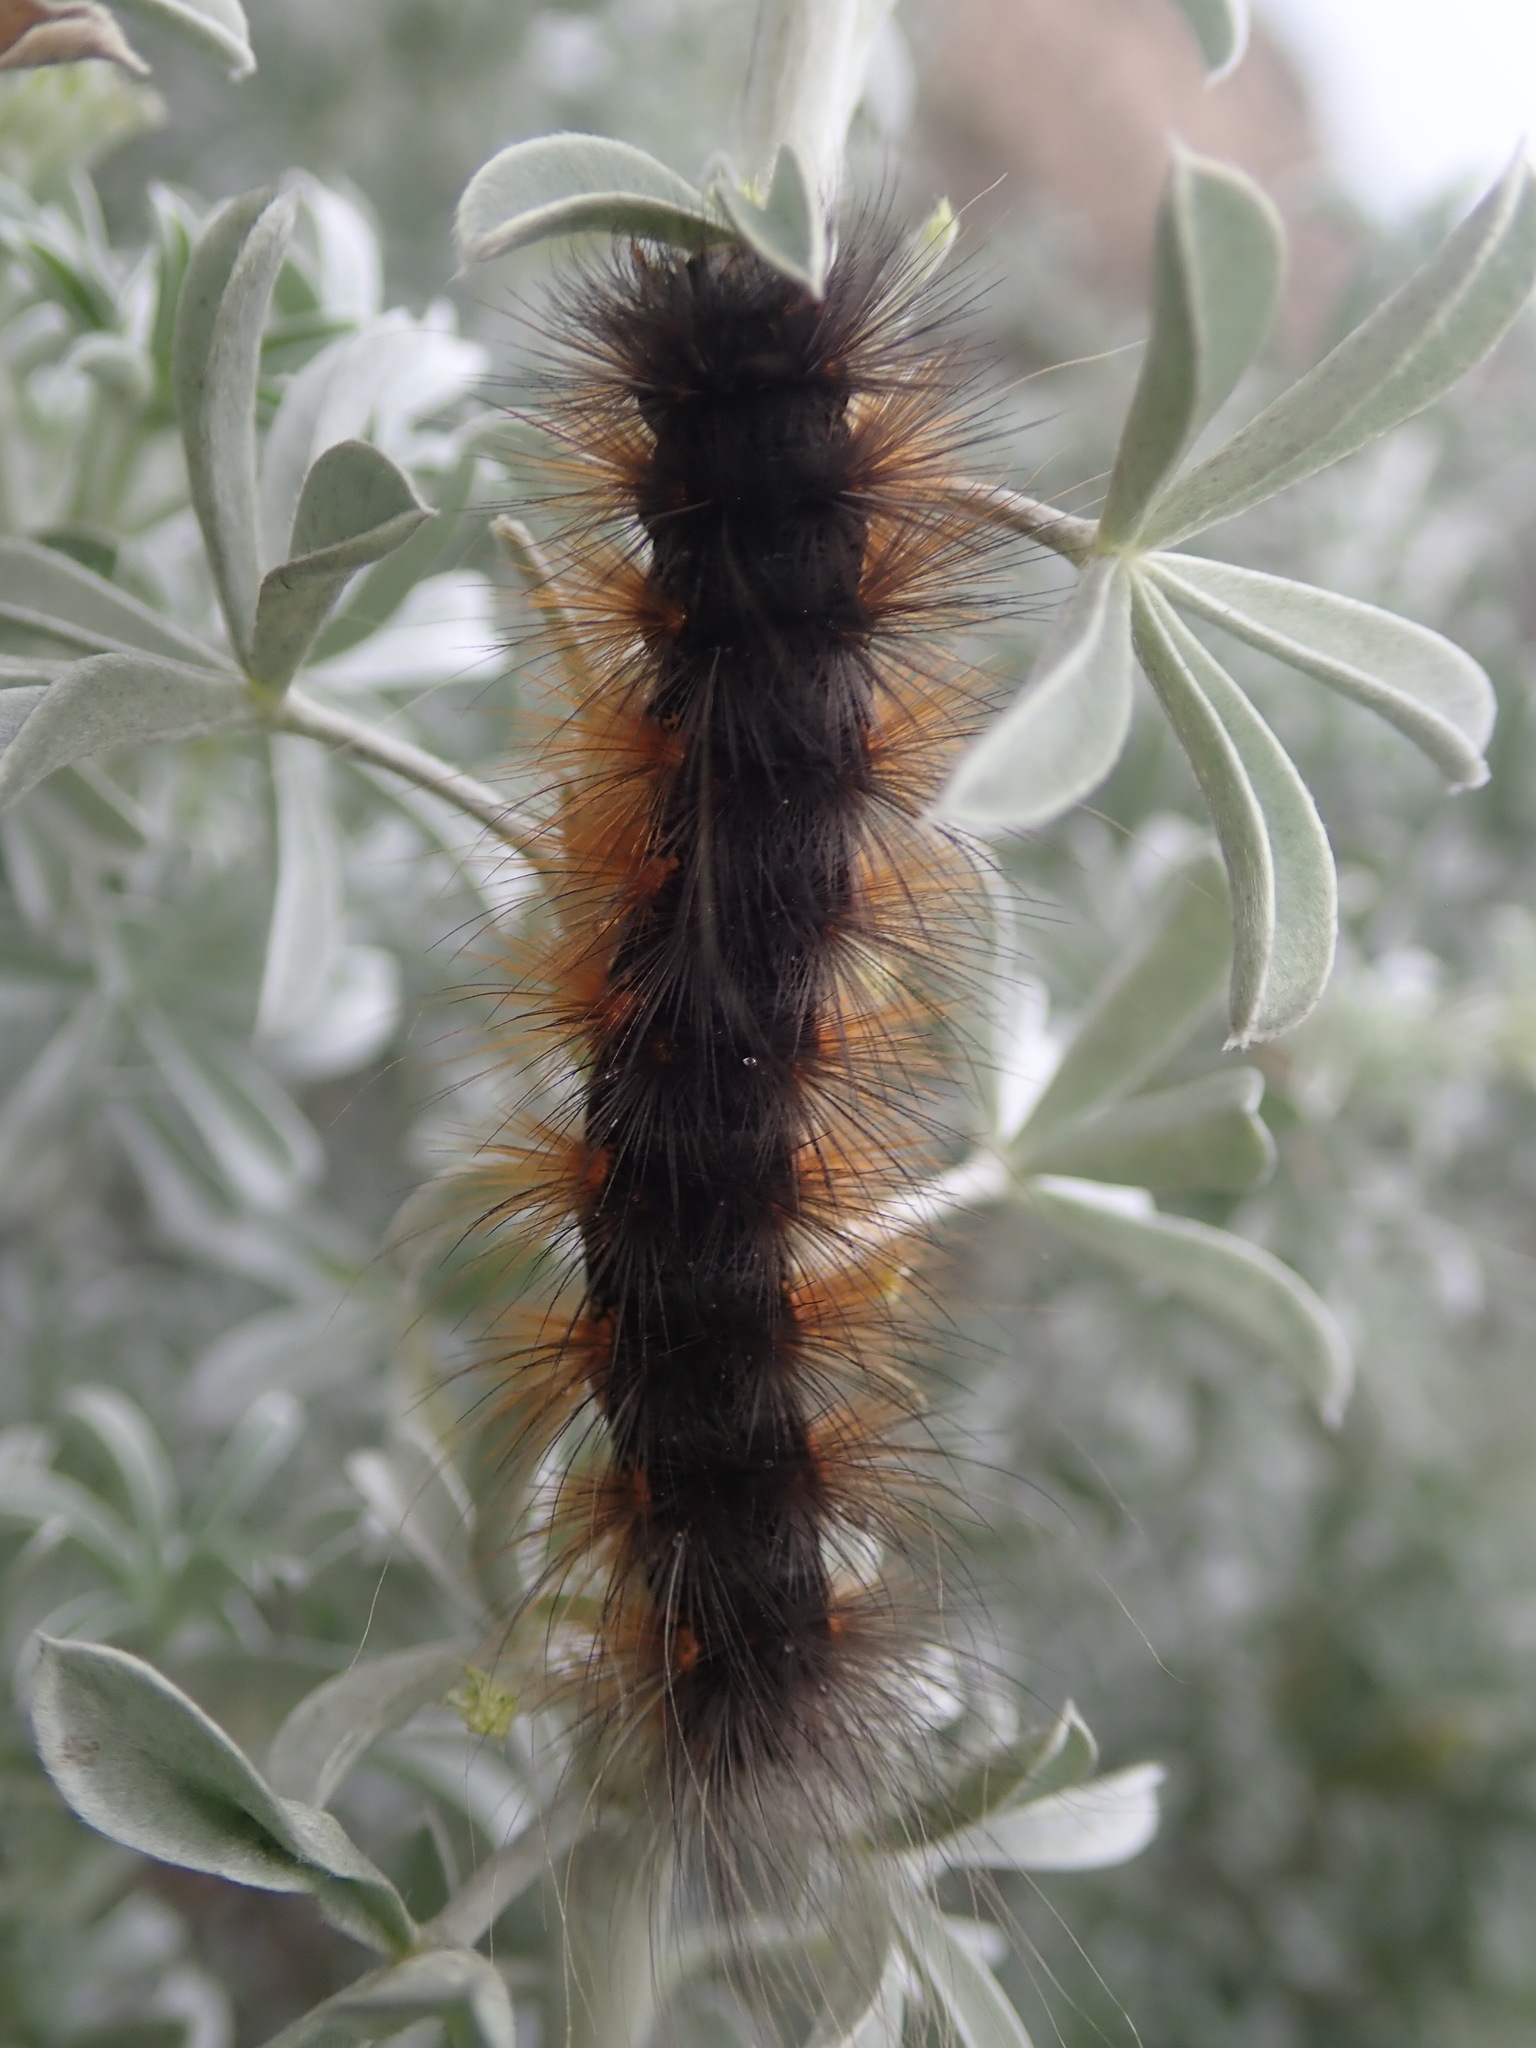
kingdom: Animalia
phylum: Arthropoda
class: Insecta
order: Lepidoptera
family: Erebidae
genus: Estigmene
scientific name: Estigmene acrea
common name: Salt marsh moth
